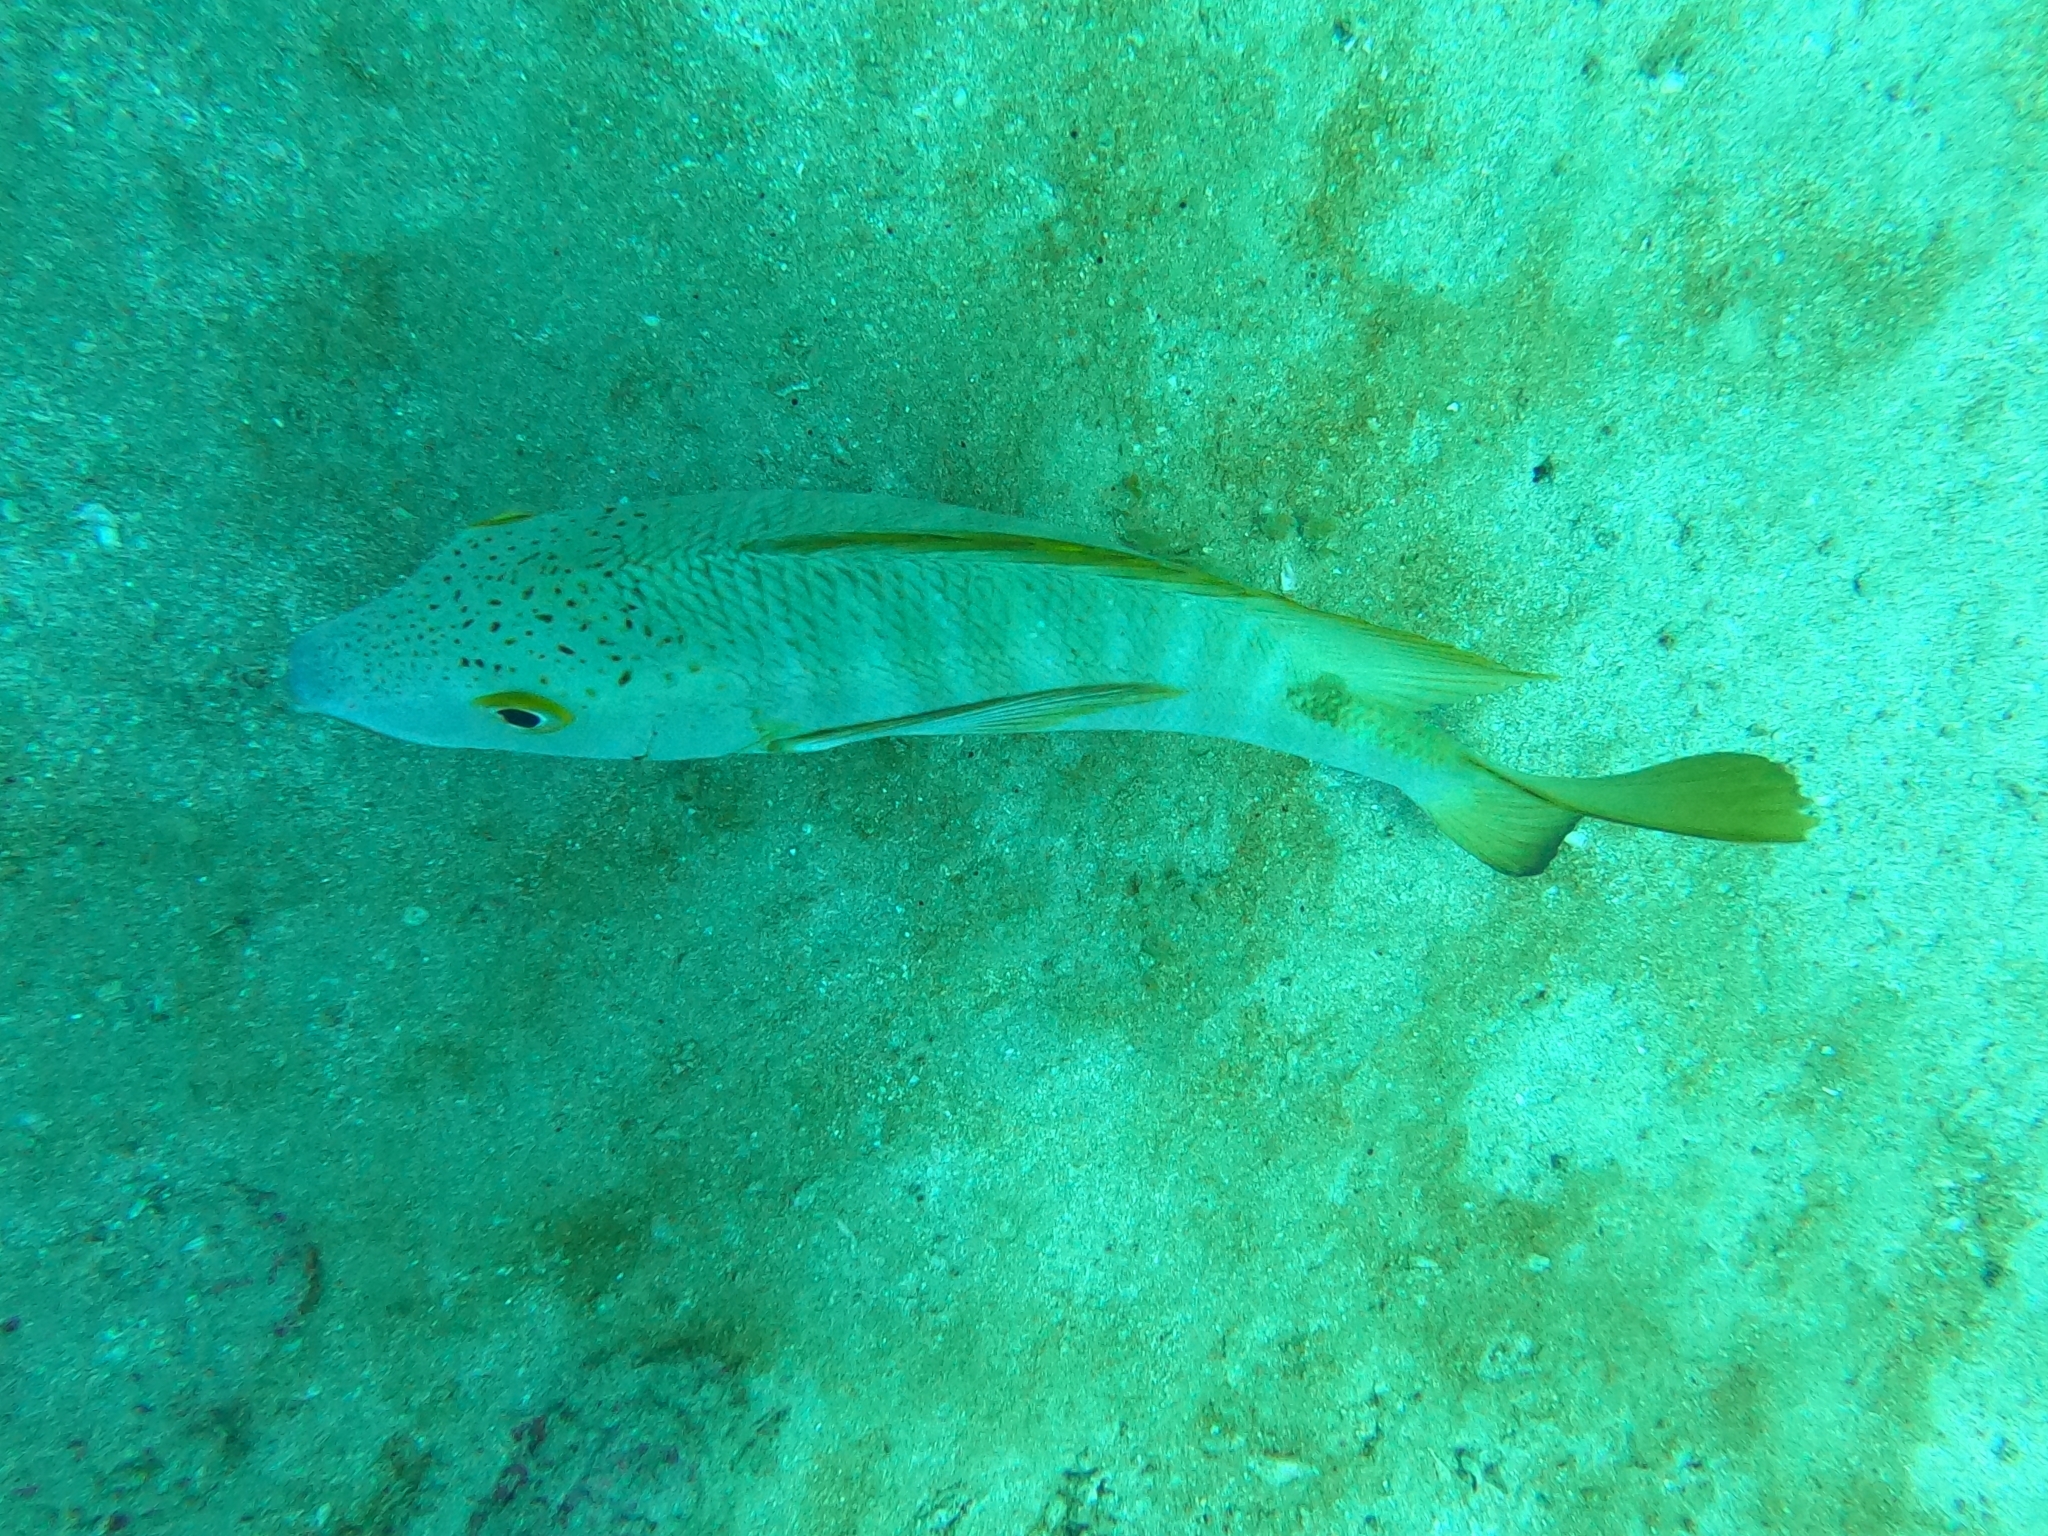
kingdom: Animalia
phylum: Chordata
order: Perciformes
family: Lutjanidae
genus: Hoplopagrus
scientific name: Hoplopagrus guentherii
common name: Barred pargo
